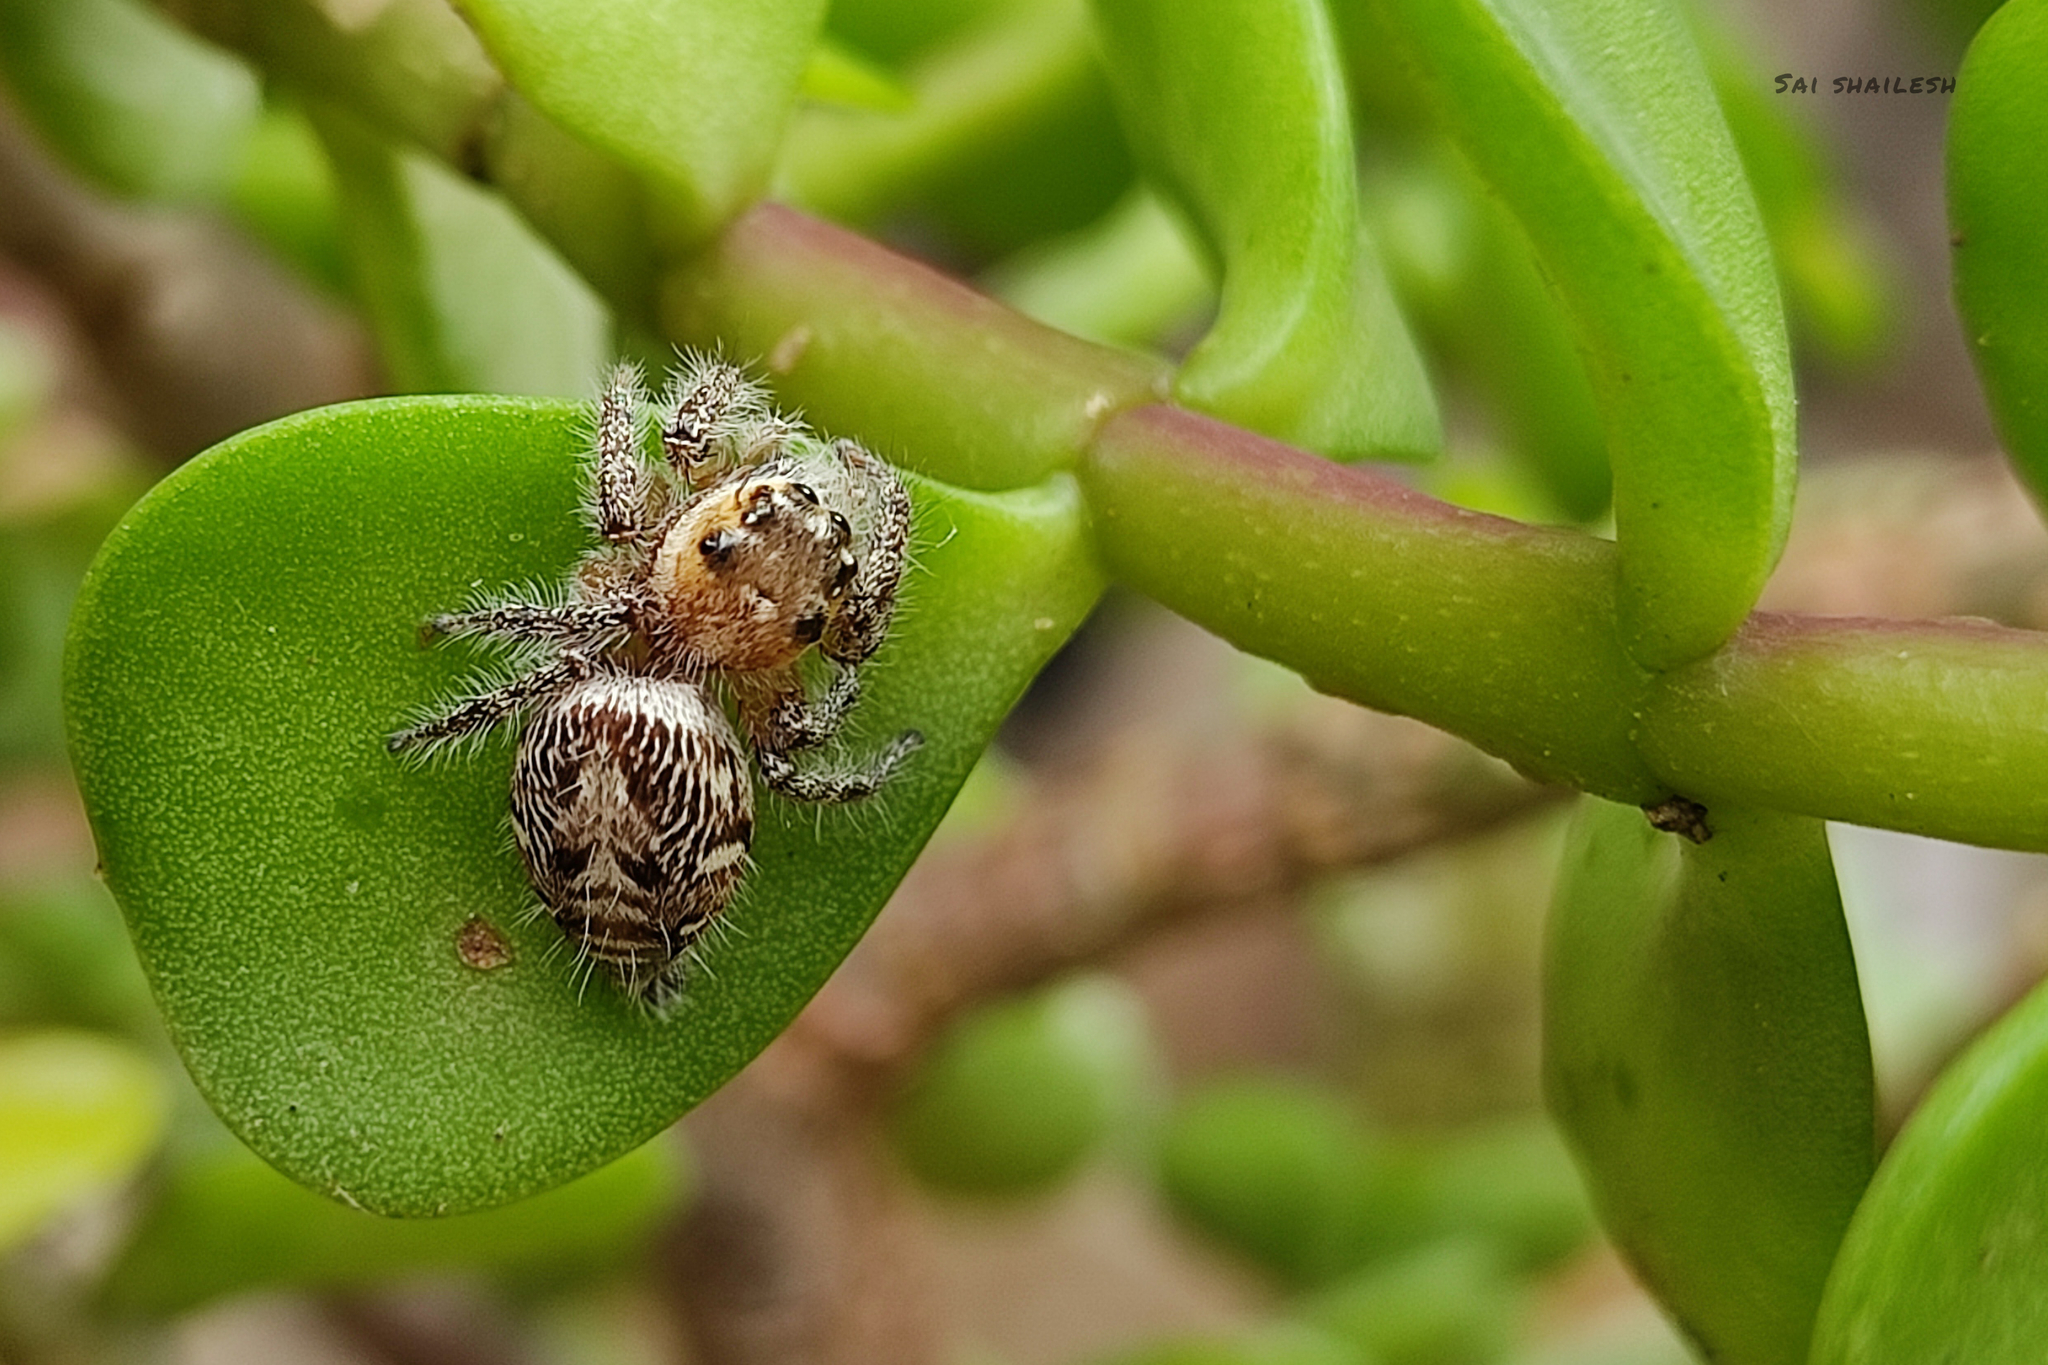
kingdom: Animalia
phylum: Arthropoda
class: Arachnida
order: Araneae
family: Salticidae
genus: Hyllus
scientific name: Hyllus semicupreus
